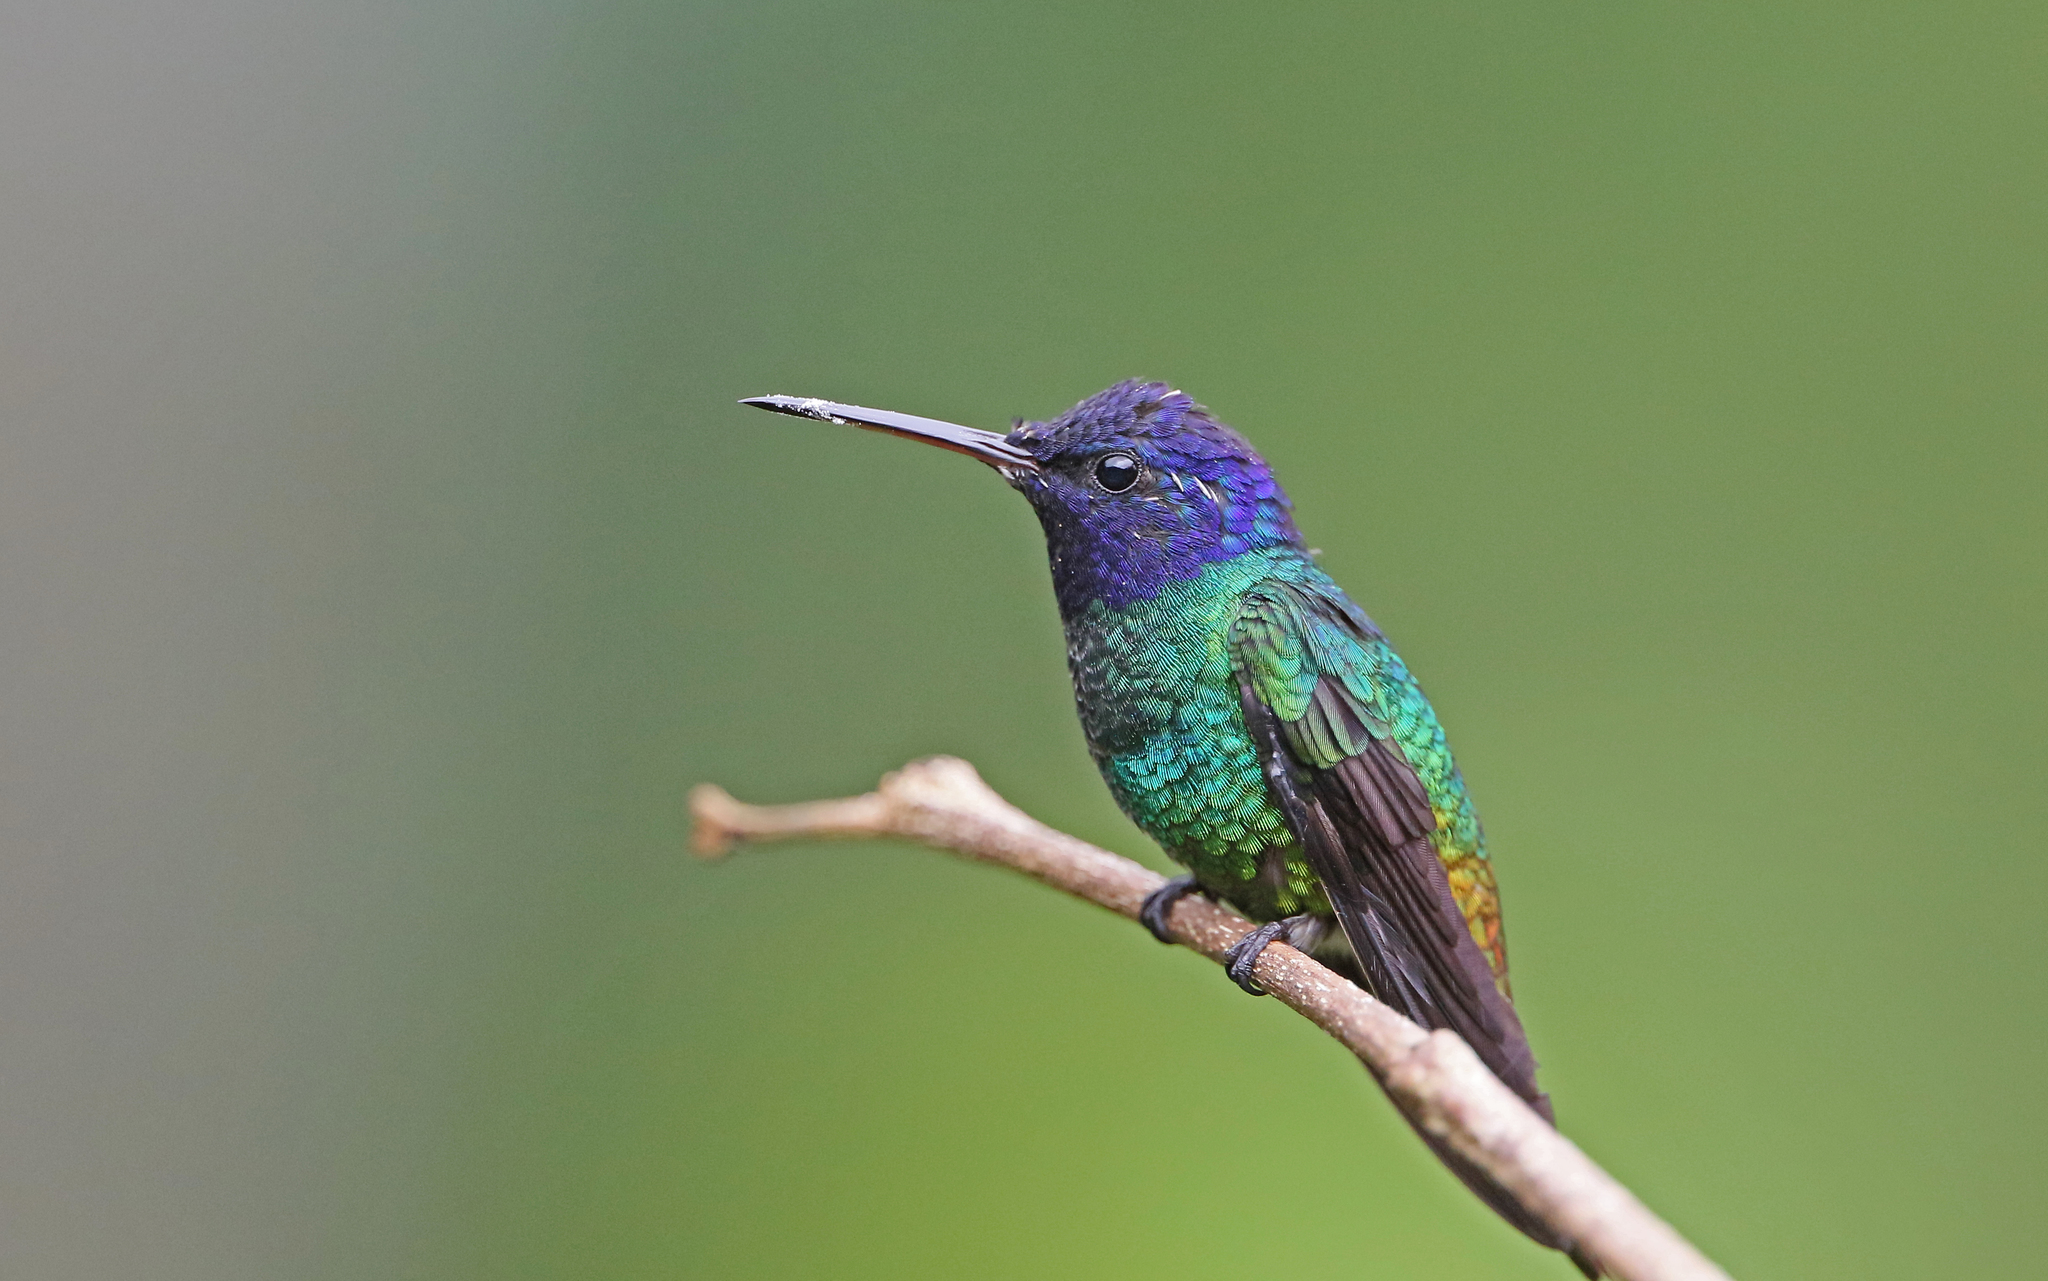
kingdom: Animalia
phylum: Chordata
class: Aves
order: Apodiformes
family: Trochilidae
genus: Chrysuronia
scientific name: Chrysuronia oenone
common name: Golden-tailed sapphire
